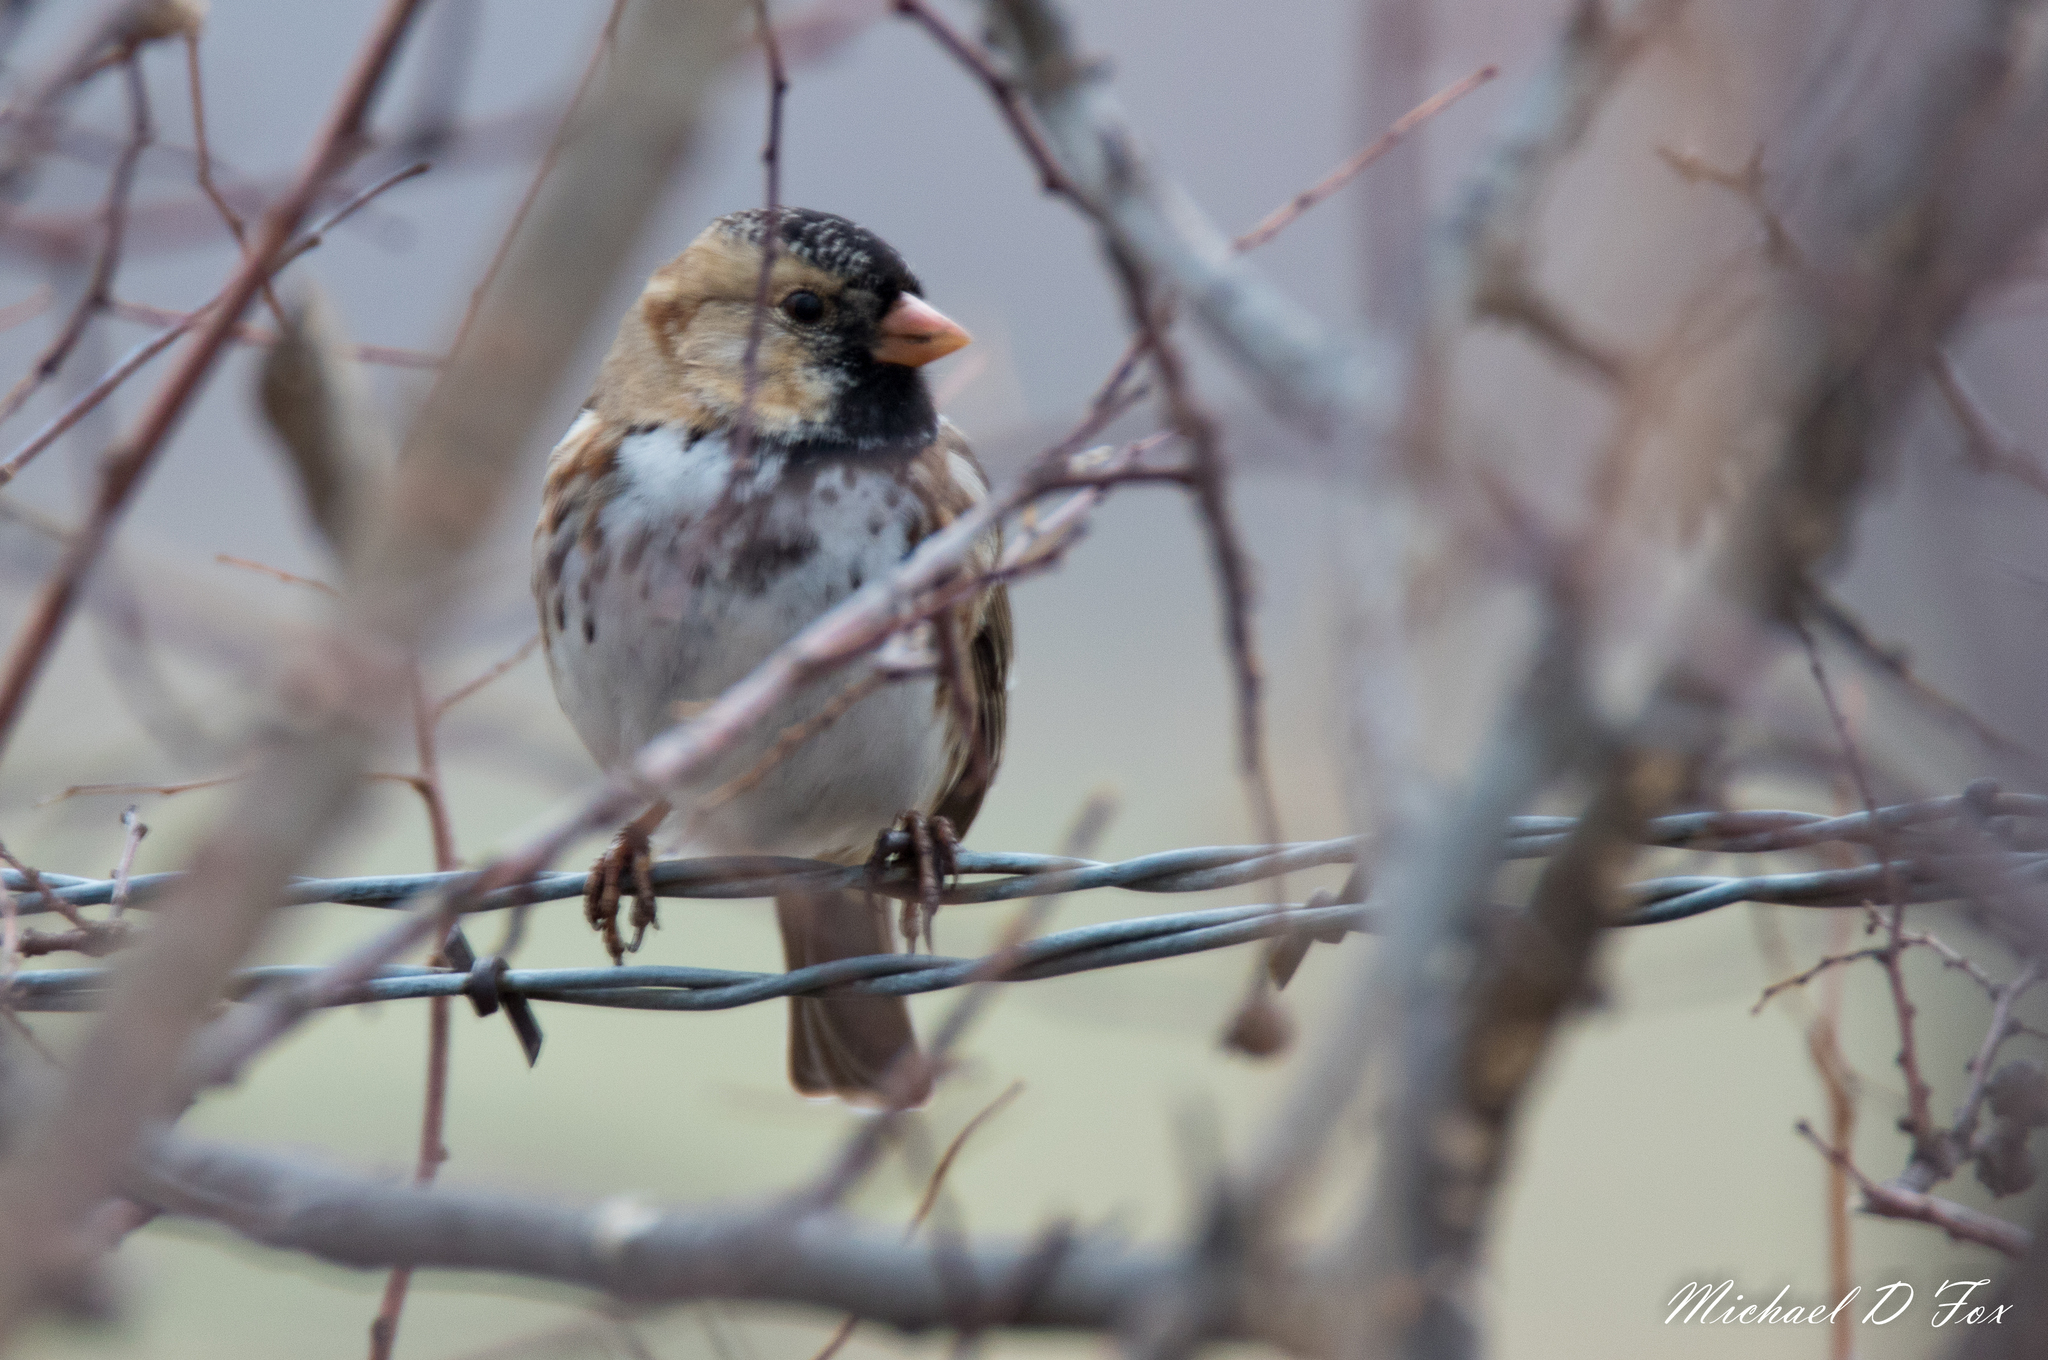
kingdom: Animalia
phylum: Chordata
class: Aves
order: Passeriformes
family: Passerellidae
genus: Zonotrichia
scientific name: Zonotrichia querula
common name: Harris's sparrow
